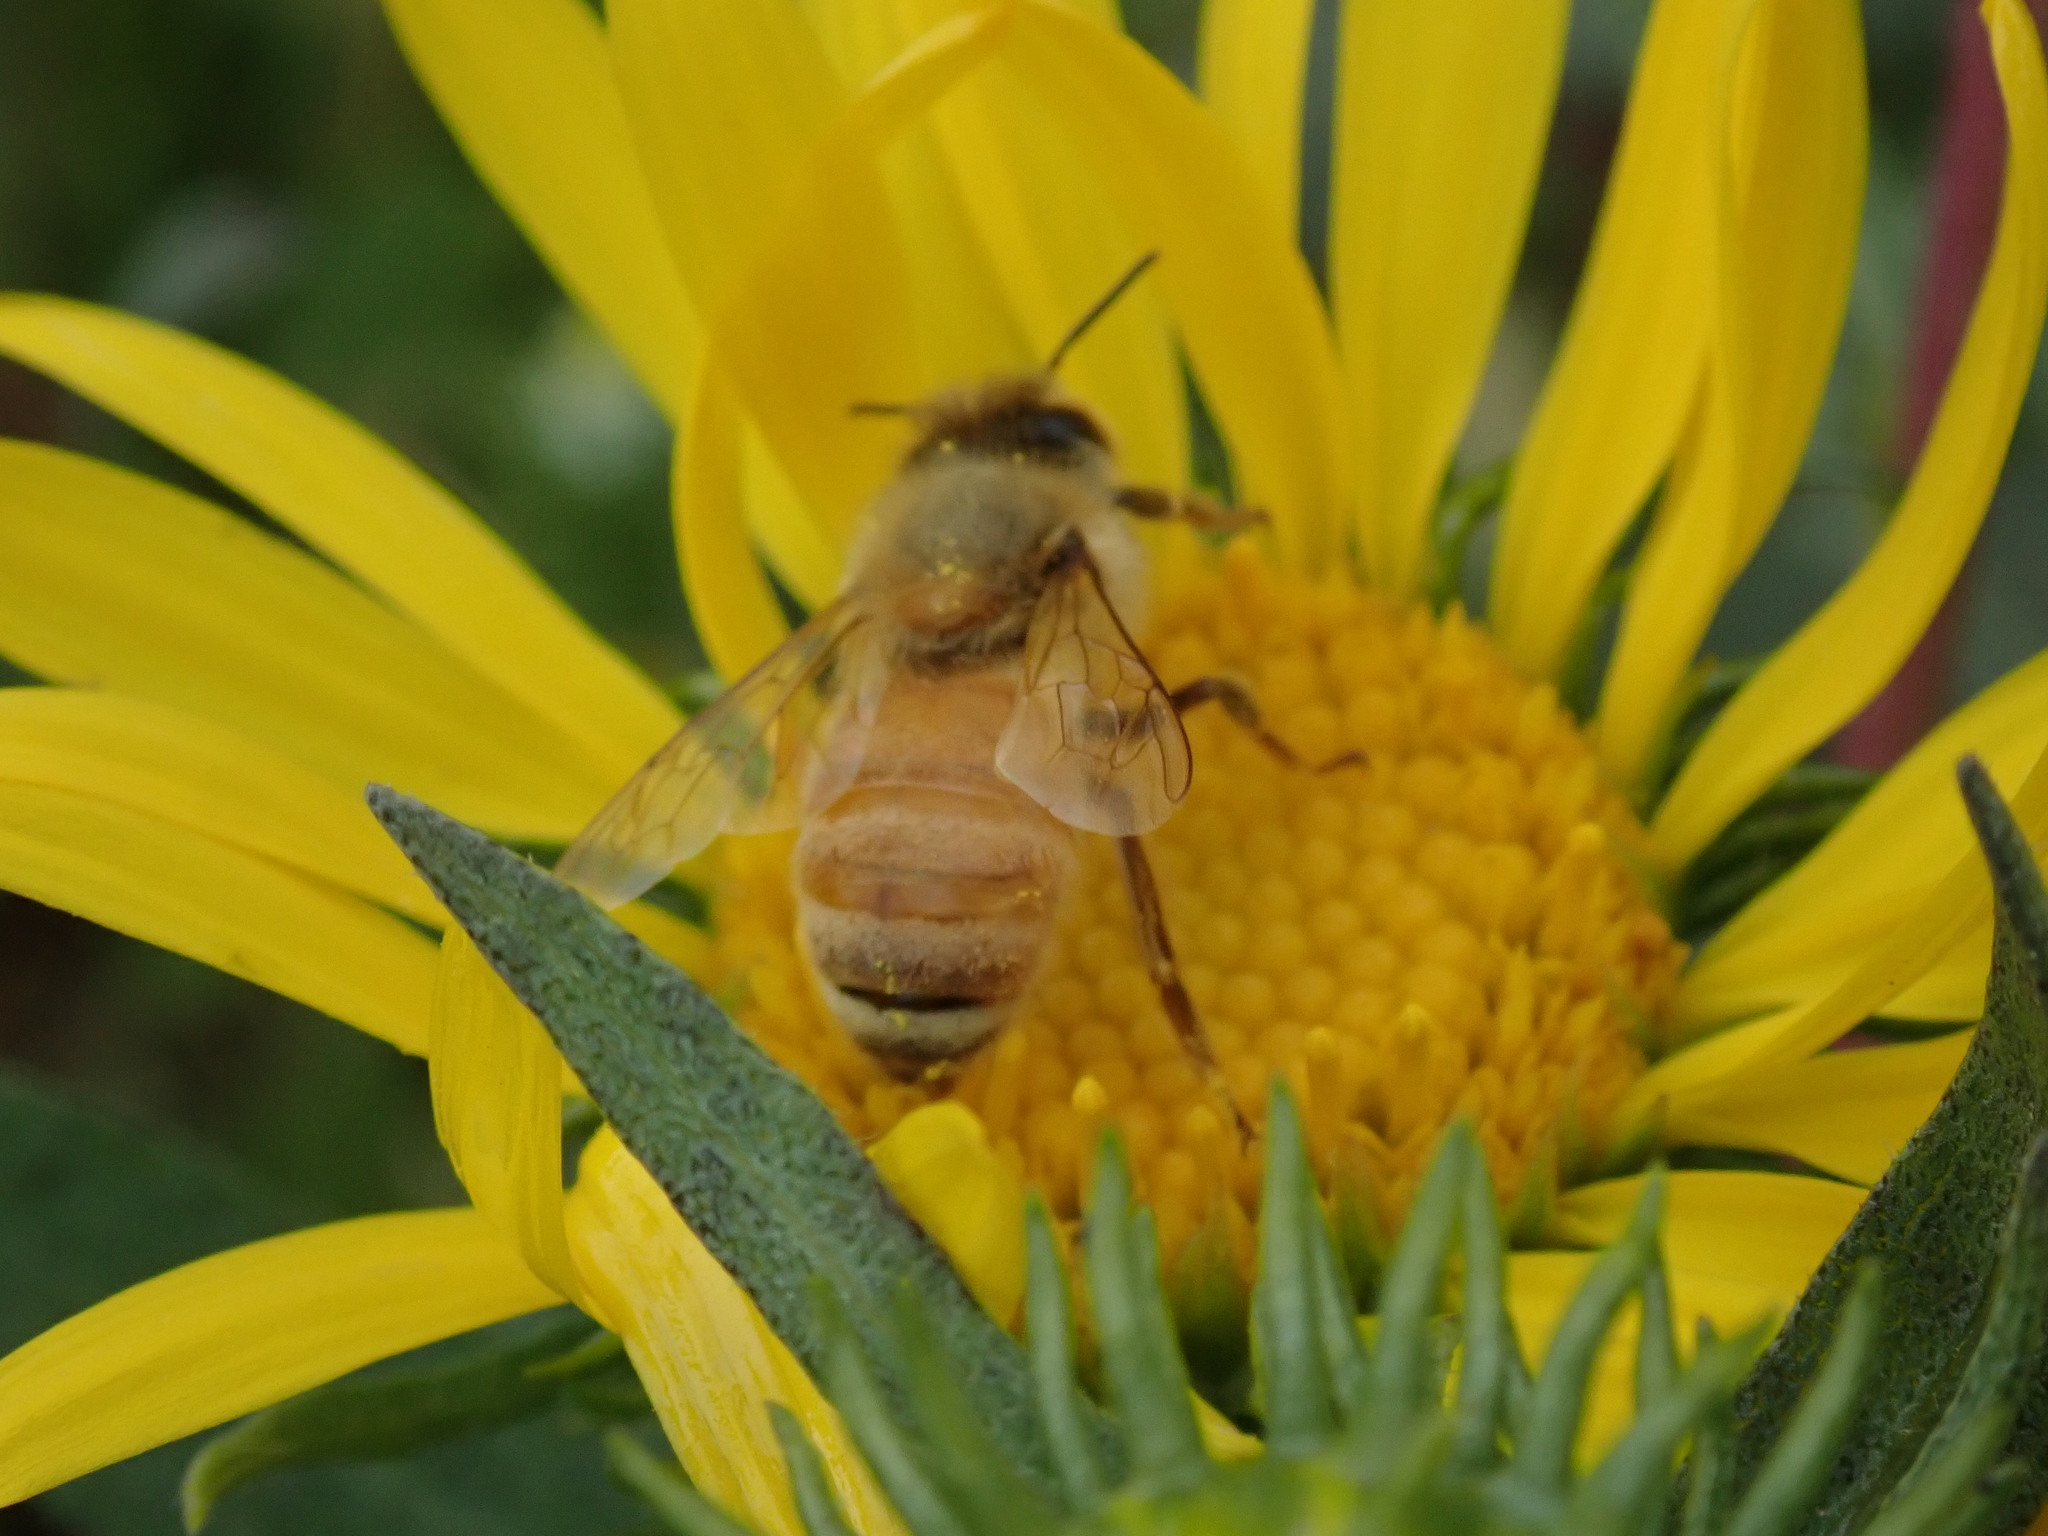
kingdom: Animalia
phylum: Arthropoda
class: Insecta
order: Hymenoptera
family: Apidae
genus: Apis
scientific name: Apis mellifera
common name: Honey bee
